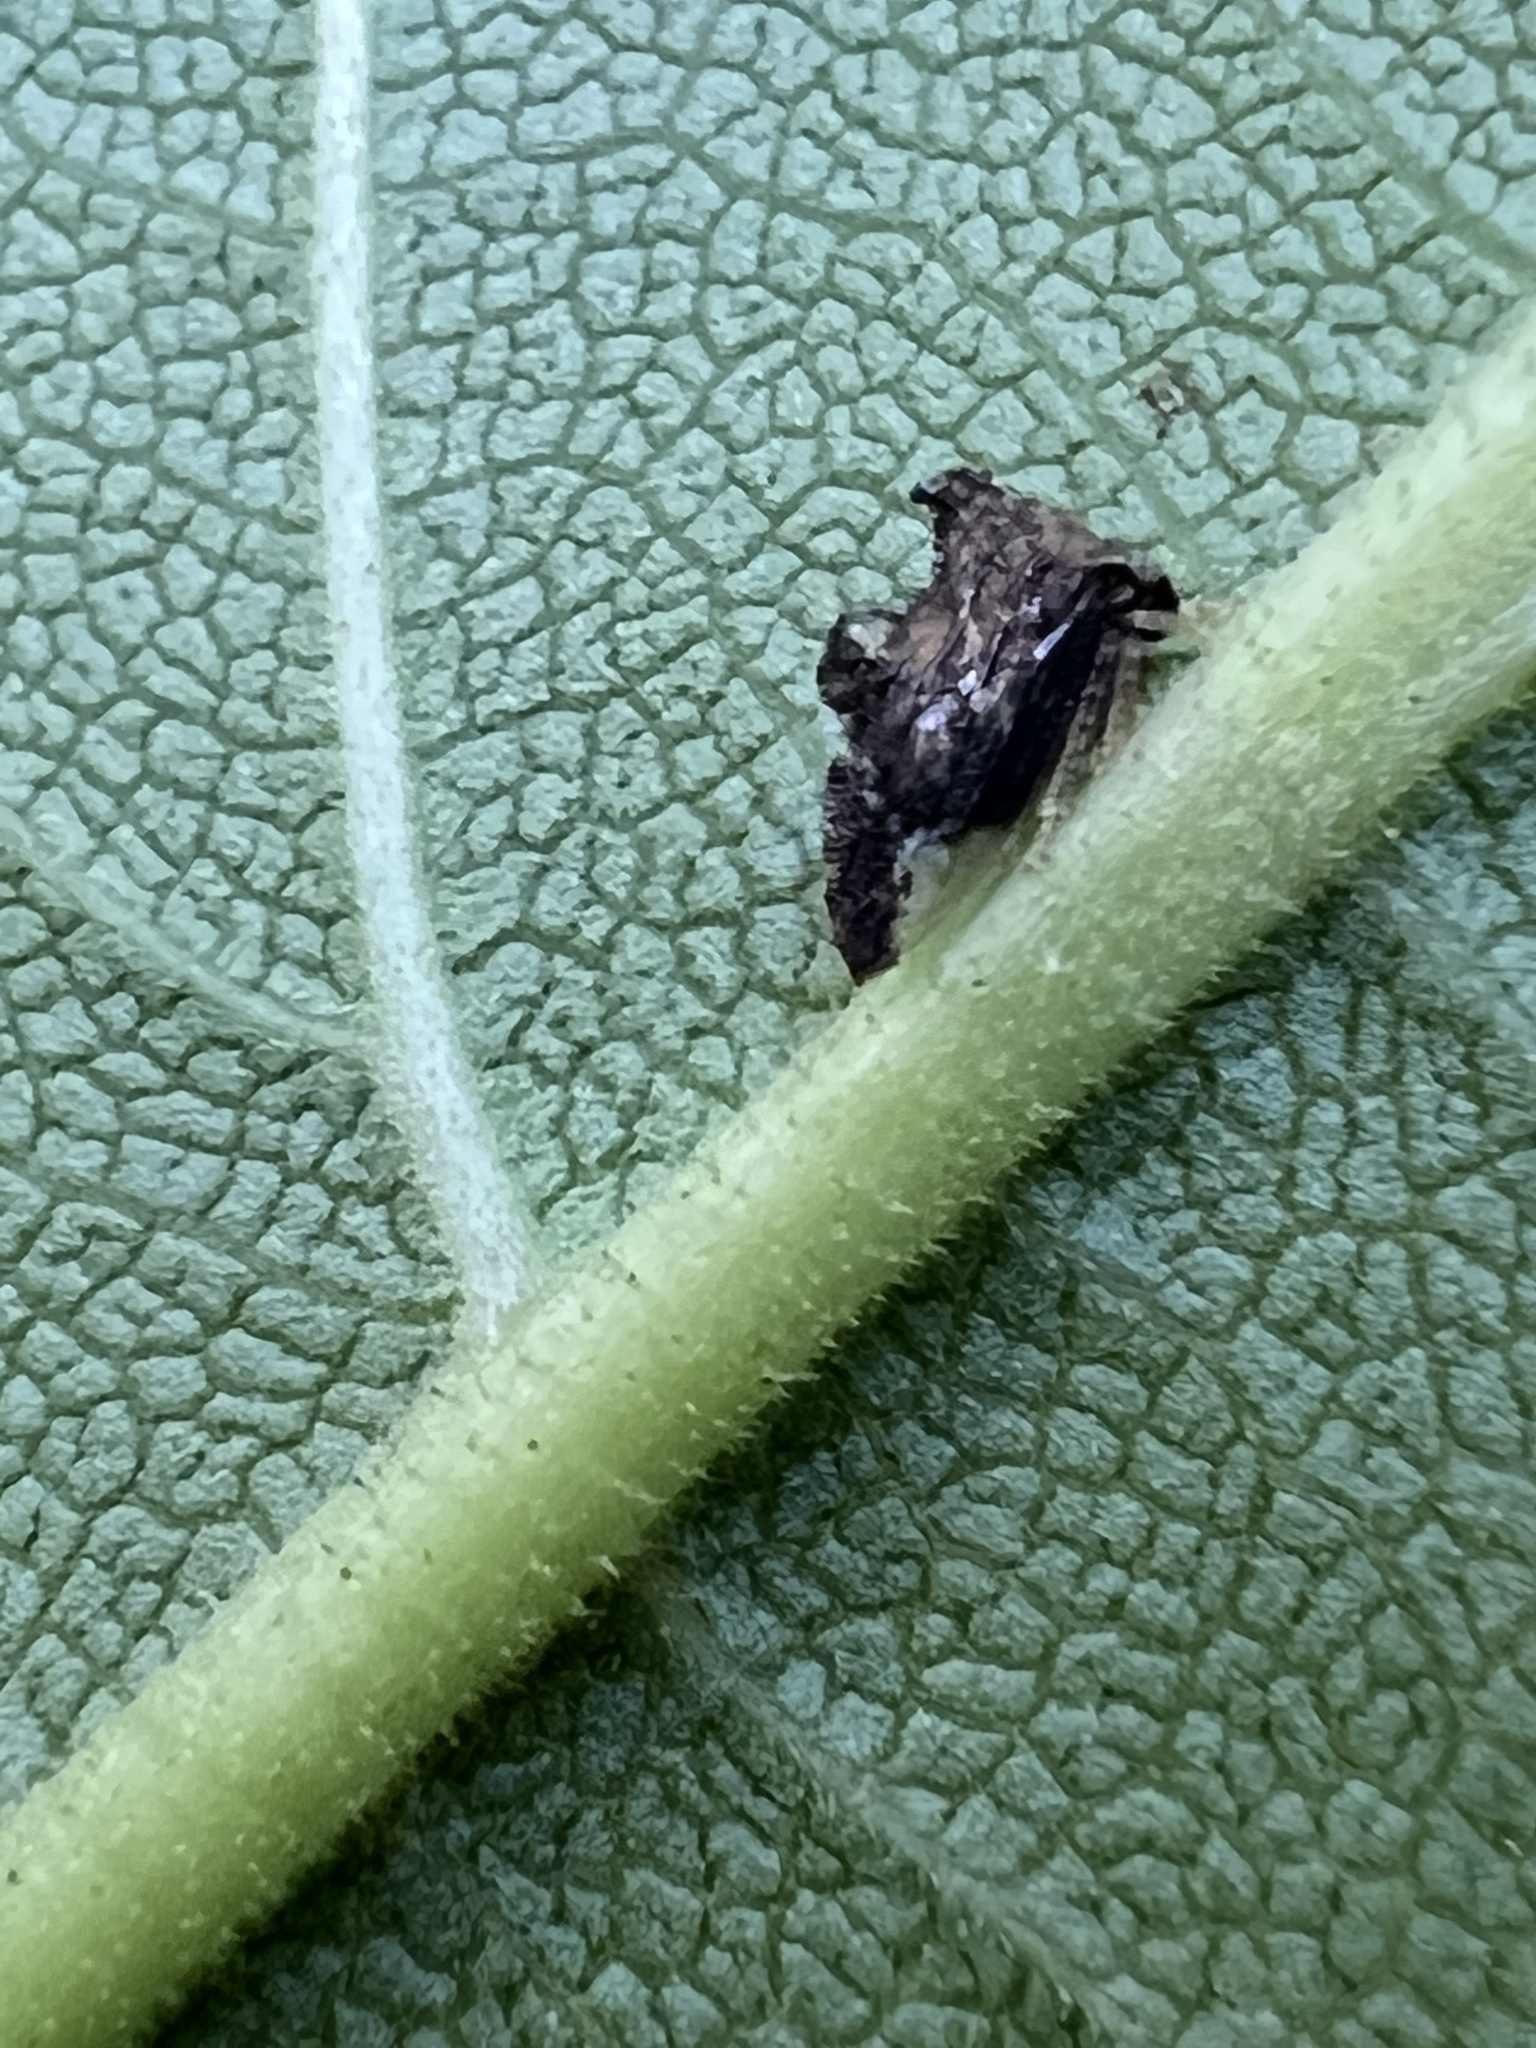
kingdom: Animalia
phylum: Arthropoda
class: Insecta
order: Hemiptera
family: Membracidae
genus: Entylia
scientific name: Entylia carinata
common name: Keeled treehopper
